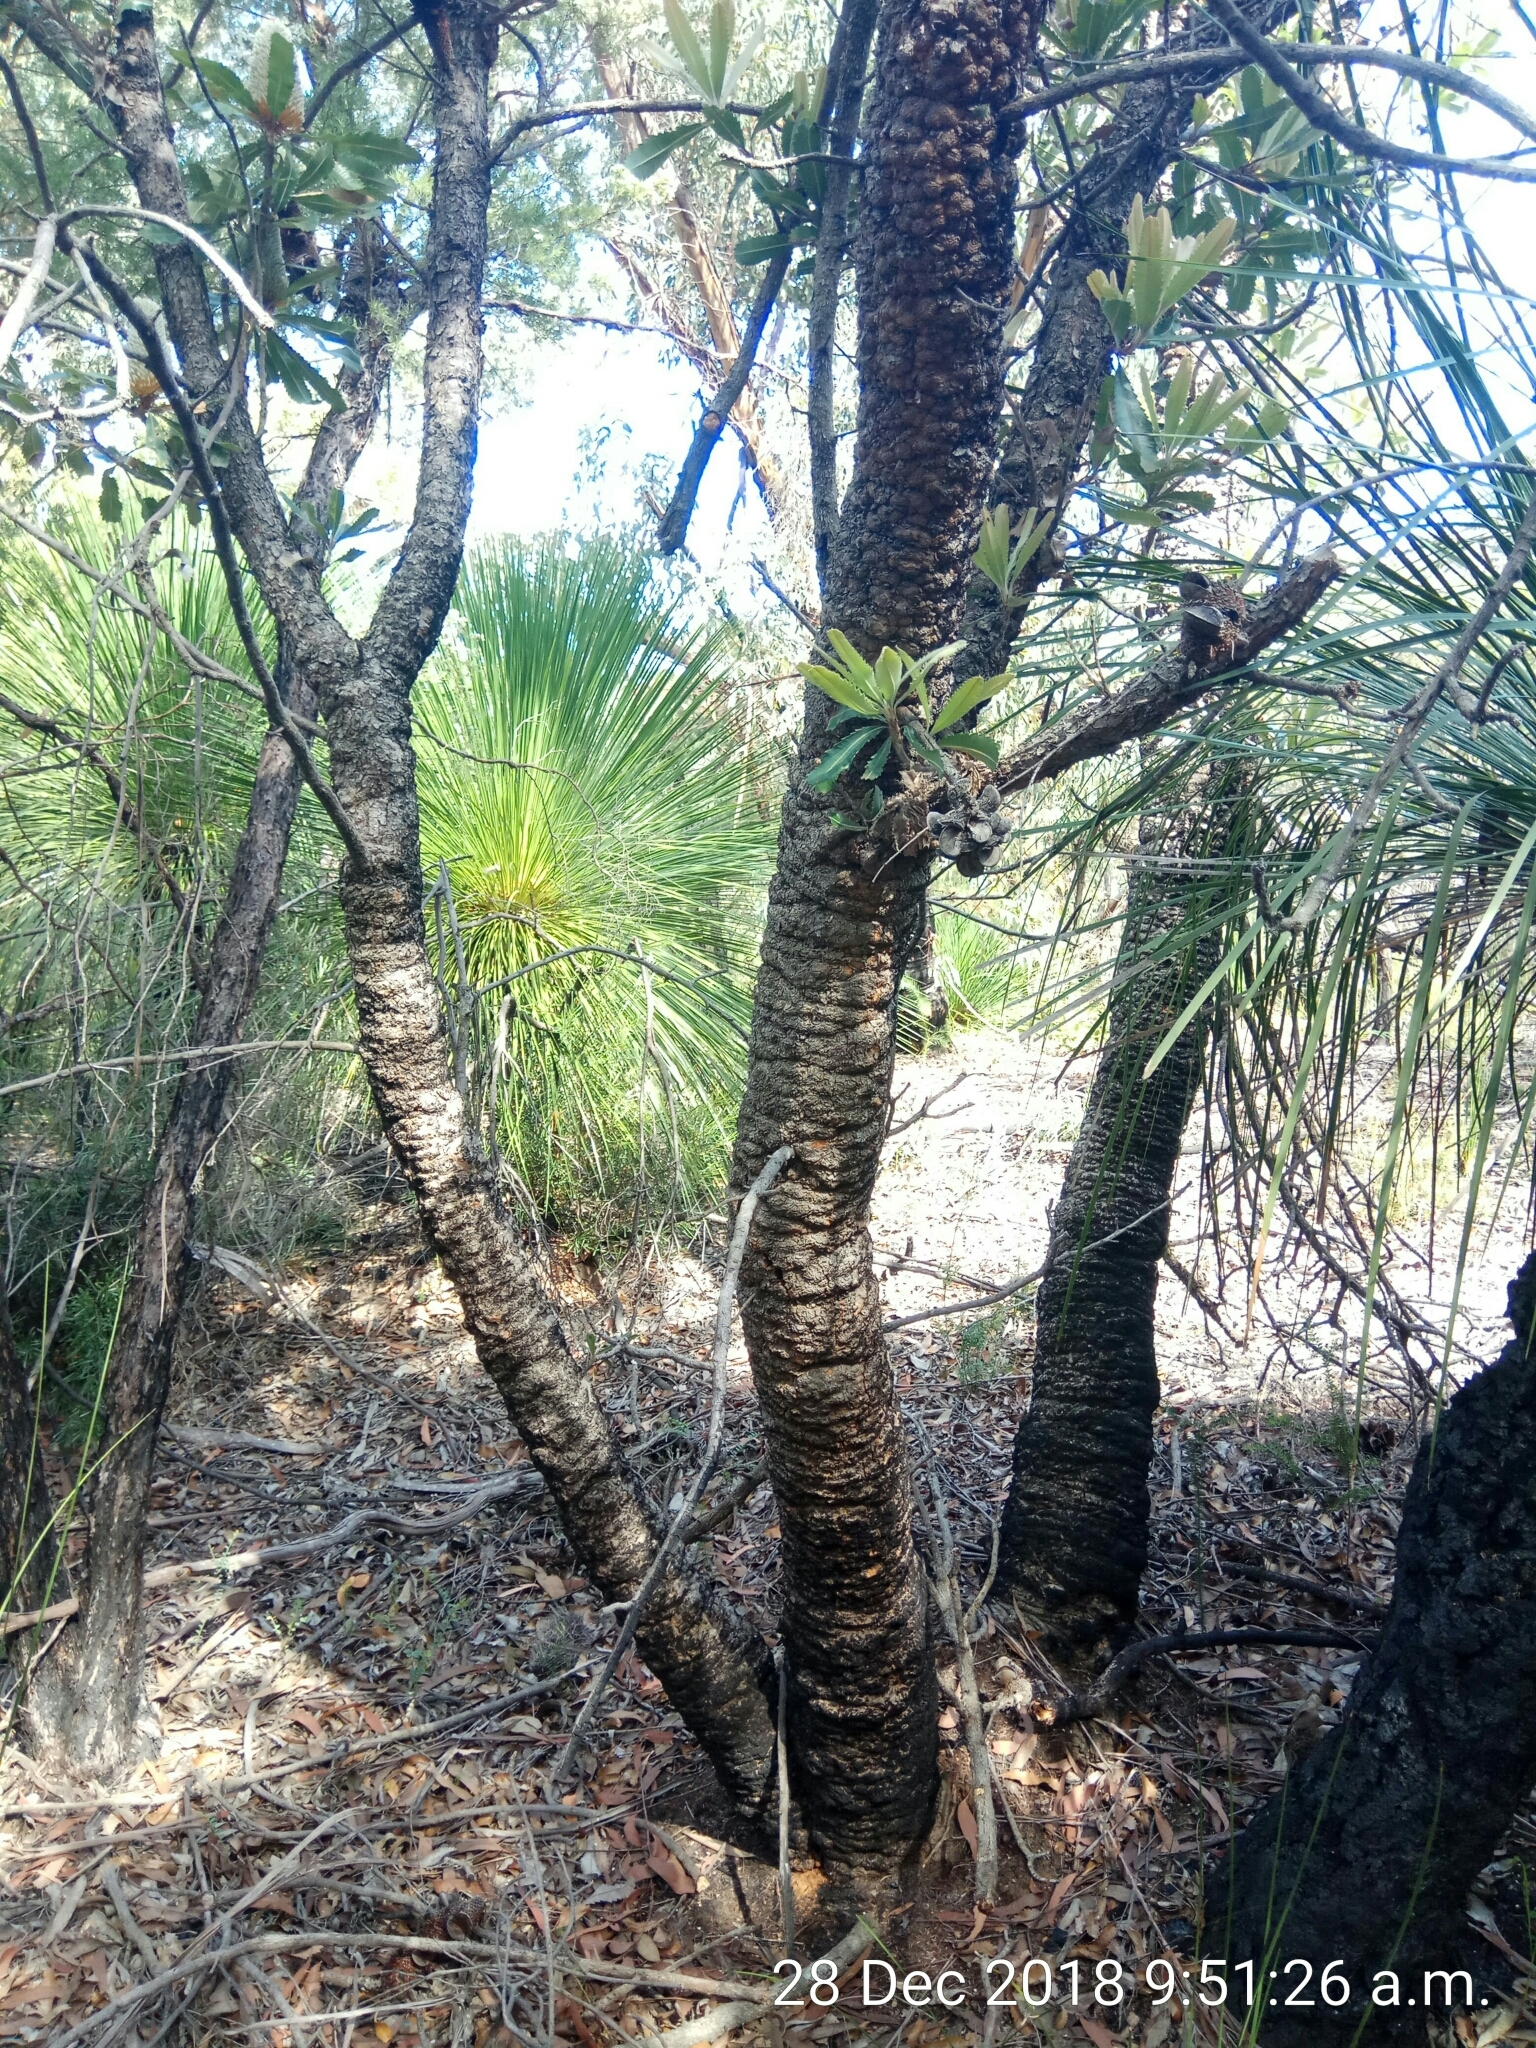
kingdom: Plantae
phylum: Tracheophyta
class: Magnoliopsida
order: Proteales
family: Proteaceae
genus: Banksia
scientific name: Banksia serrata
